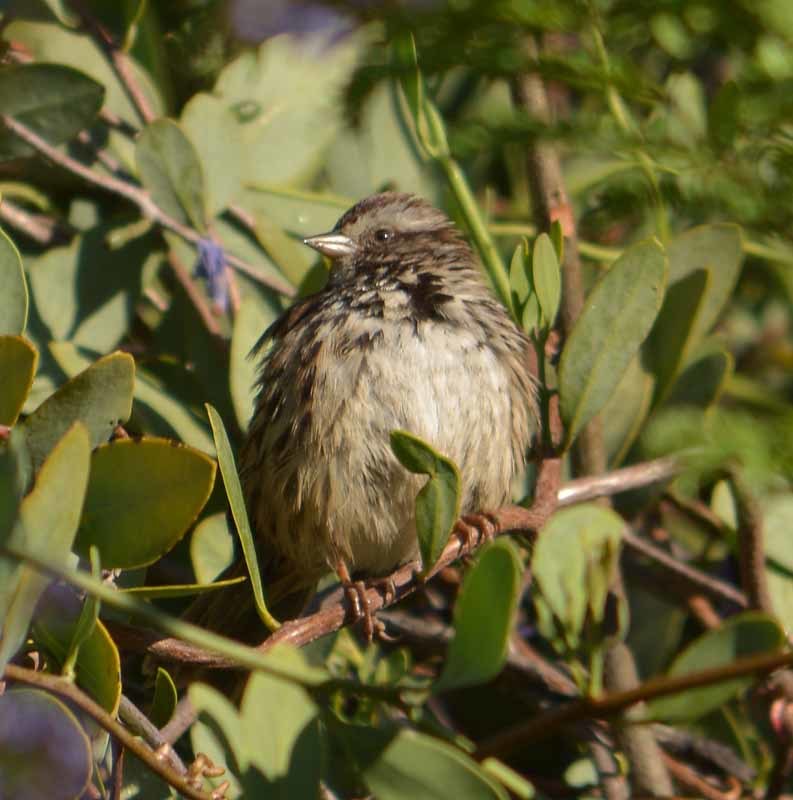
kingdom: Animalia
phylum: Chordata
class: Aves
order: Passeriformes
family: Passerellidae
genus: Melospiza
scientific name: Melospiza melodia
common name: Song sparrow
